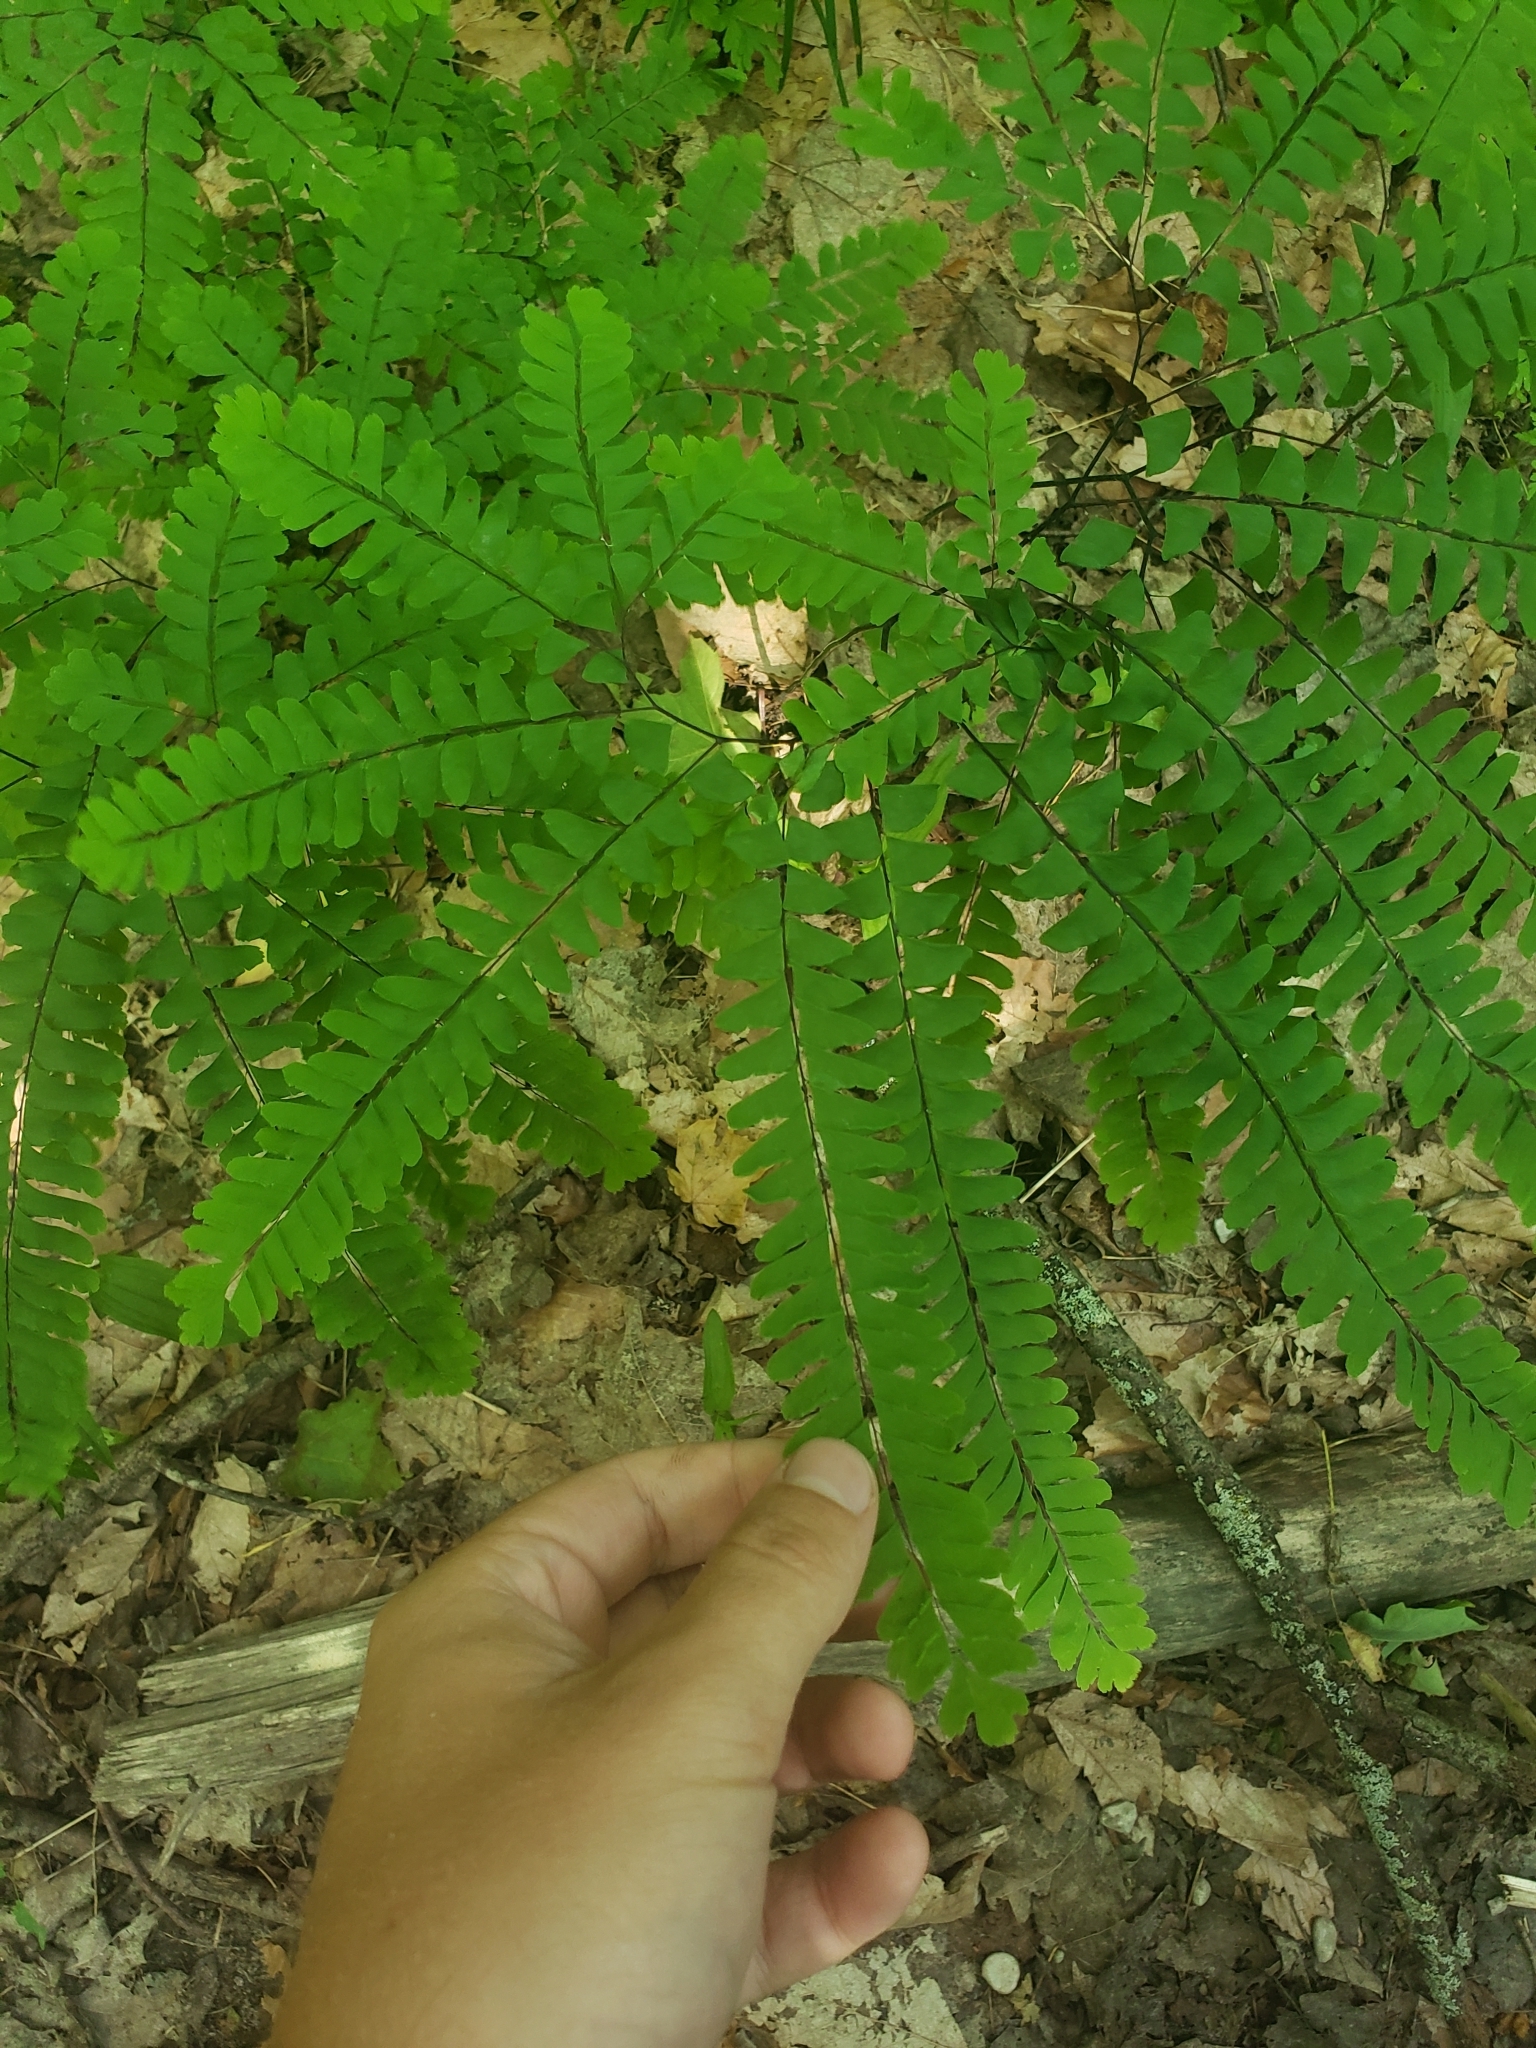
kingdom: Plantae
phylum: Tracheophyta
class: Polypodiopsida
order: Polypodiales
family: Pteridaceae
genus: Adiantum
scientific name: Adiantum pedatum
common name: Five-finger fern
